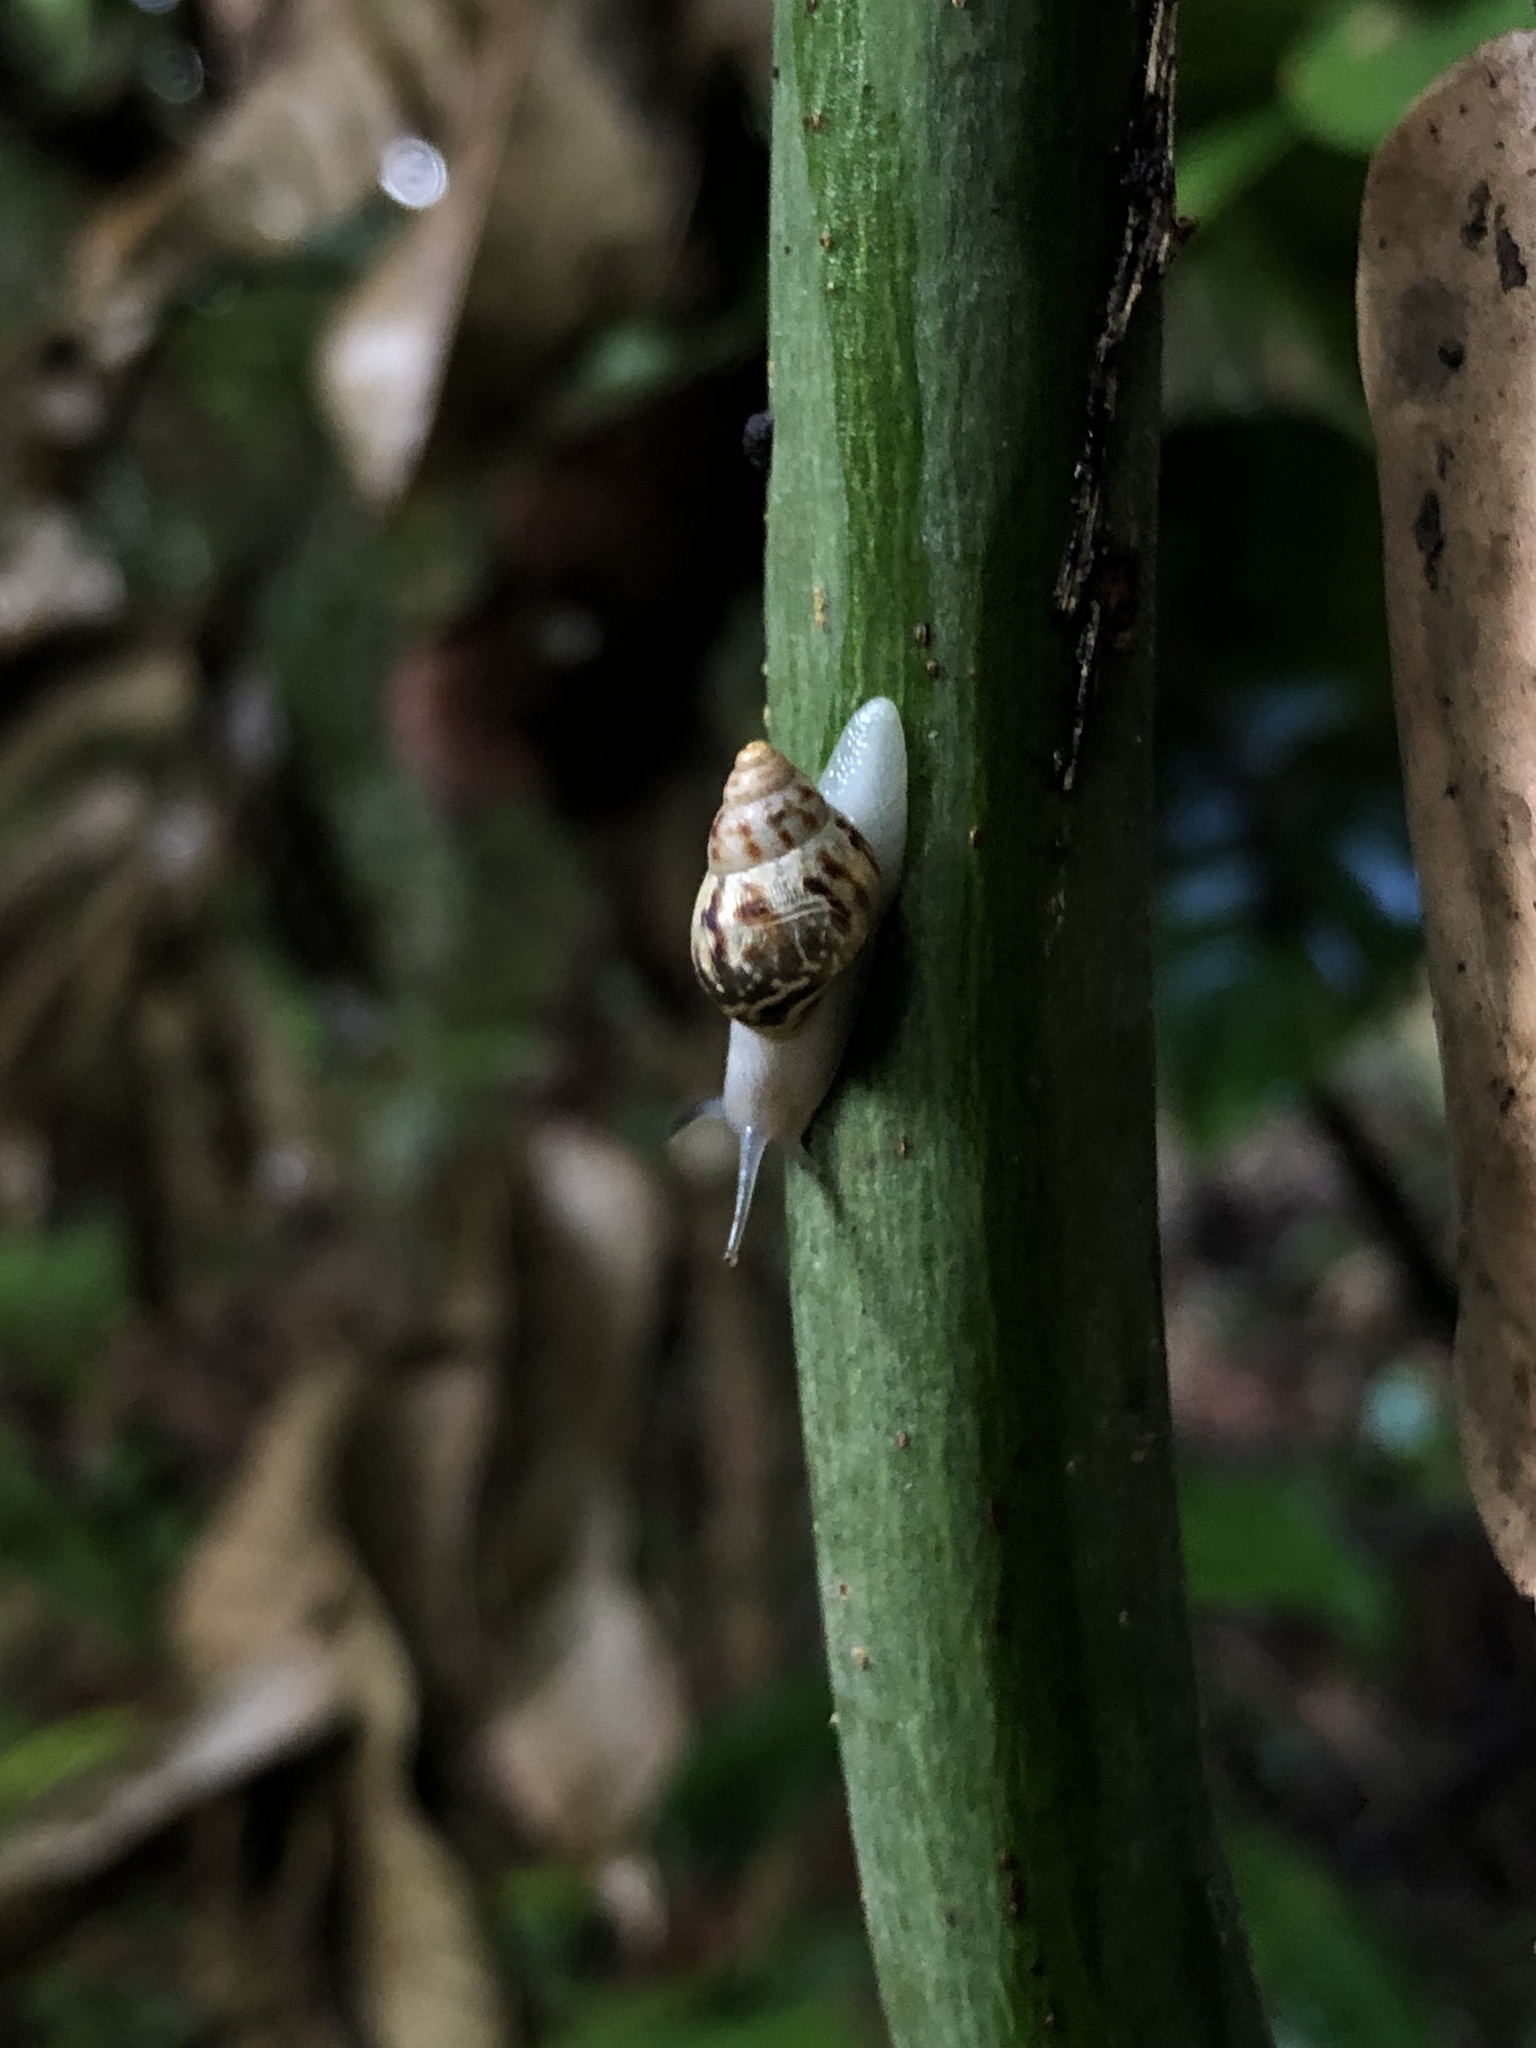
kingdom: Animalia
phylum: Mollusca
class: Gastropoda
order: Stylommatophora
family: Bulimulidae
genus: Drymaeus
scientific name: Drymaeus papyraceus
